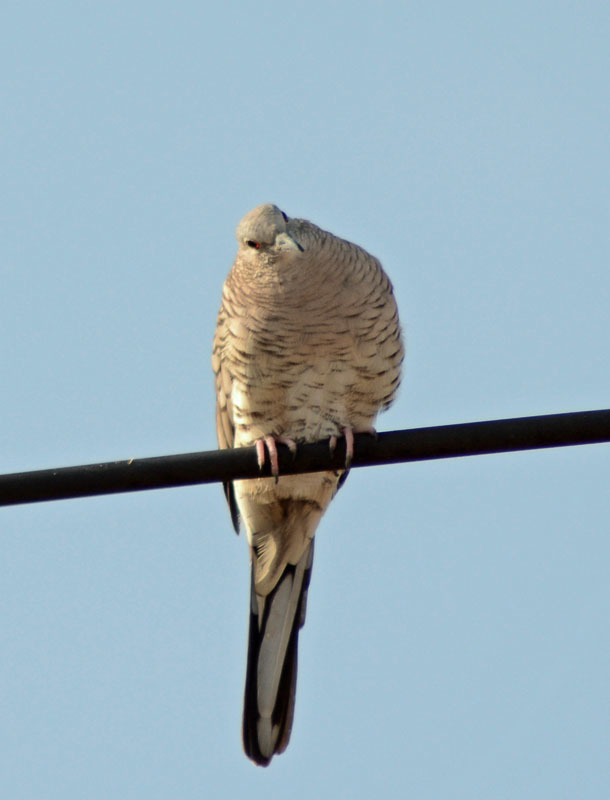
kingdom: Animalia
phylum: Chordata
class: Aves
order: Columbiformes
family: Columbidae
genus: Columbina
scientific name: Columbina inca
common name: Inca dove
